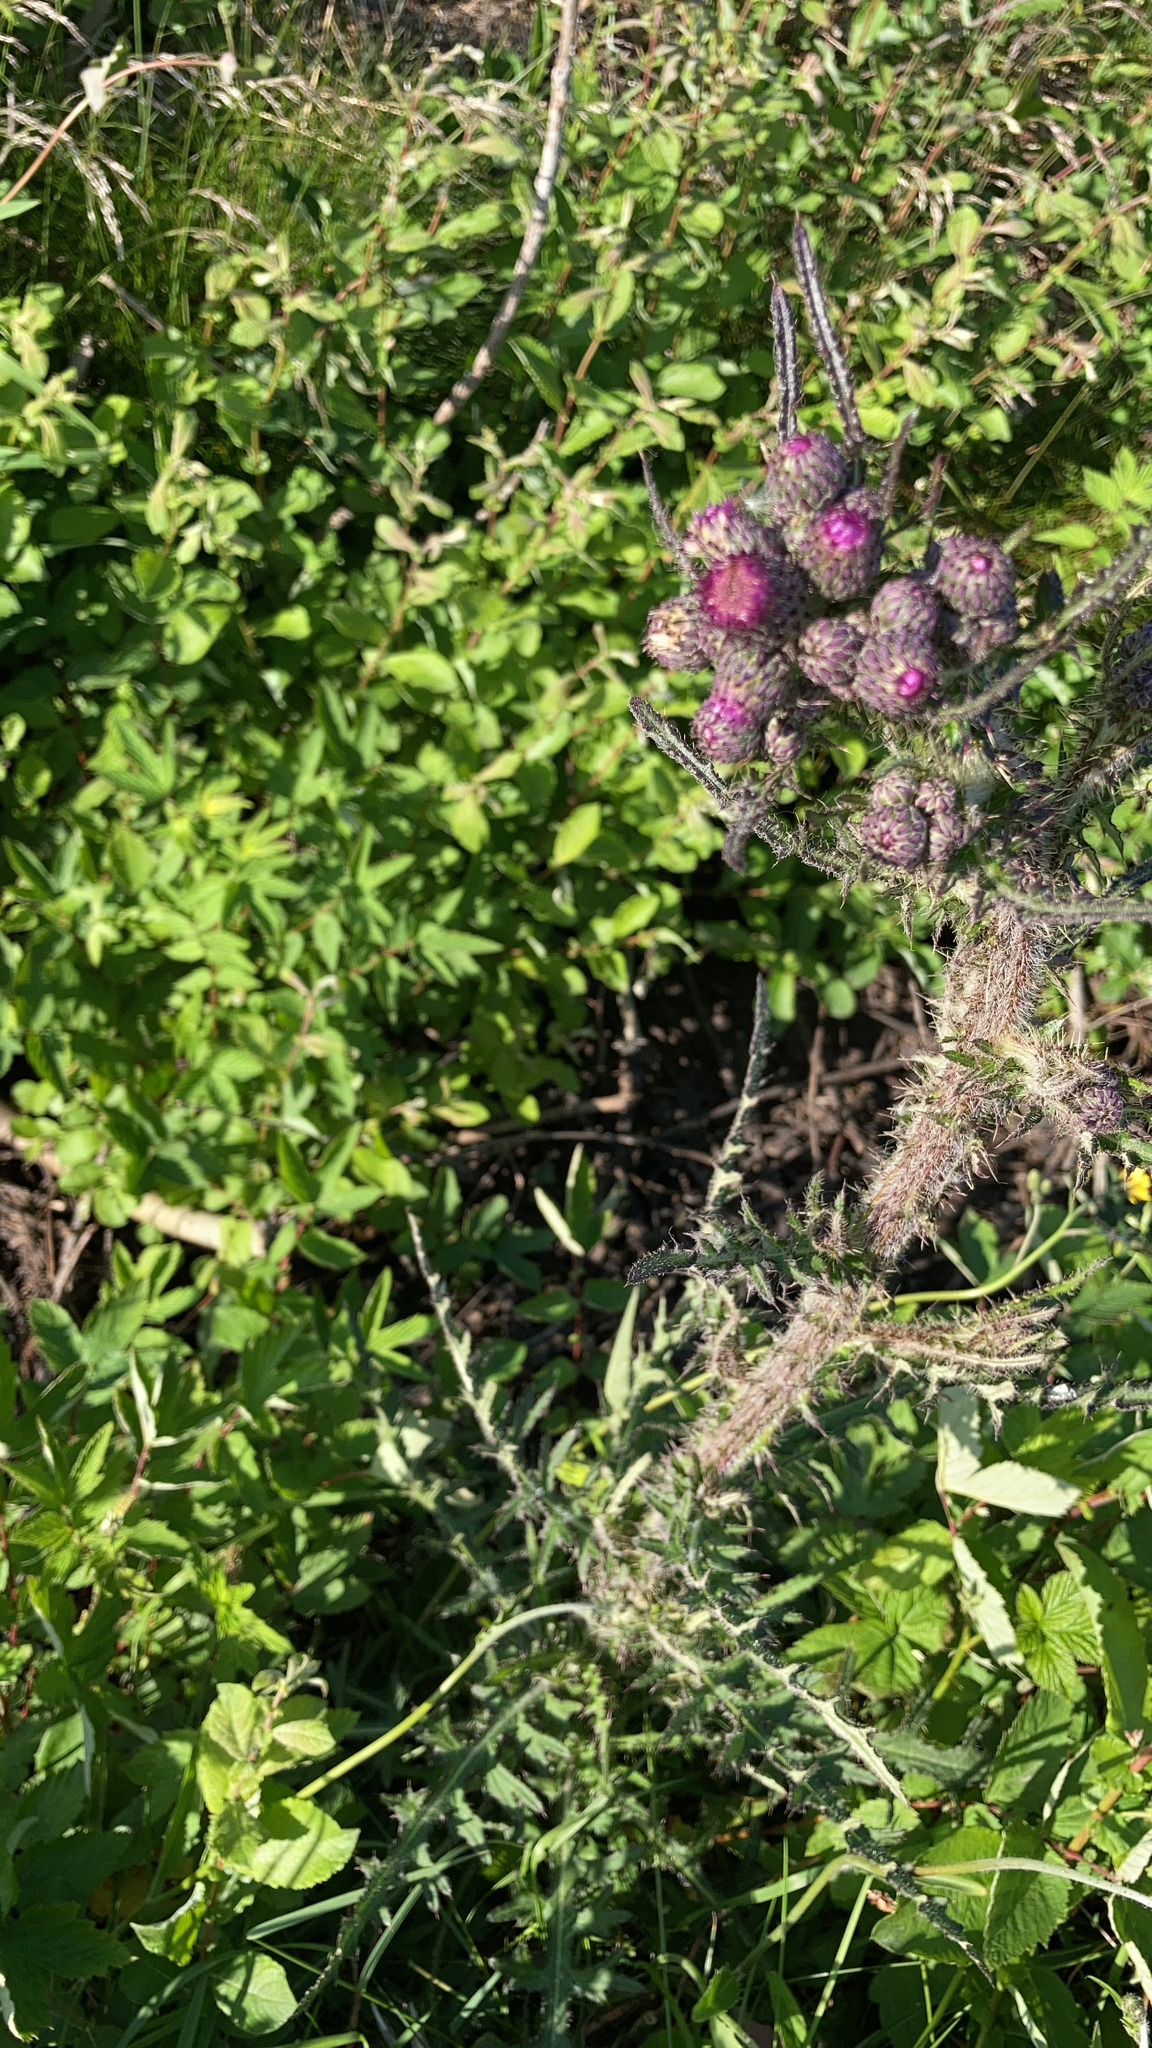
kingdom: Plantae
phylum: Tracheophyta
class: Magnoliopsida
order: Asterales
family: Asteraceae
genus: Cirsium
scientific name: Cirsium palustre
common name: Marsh thistle
